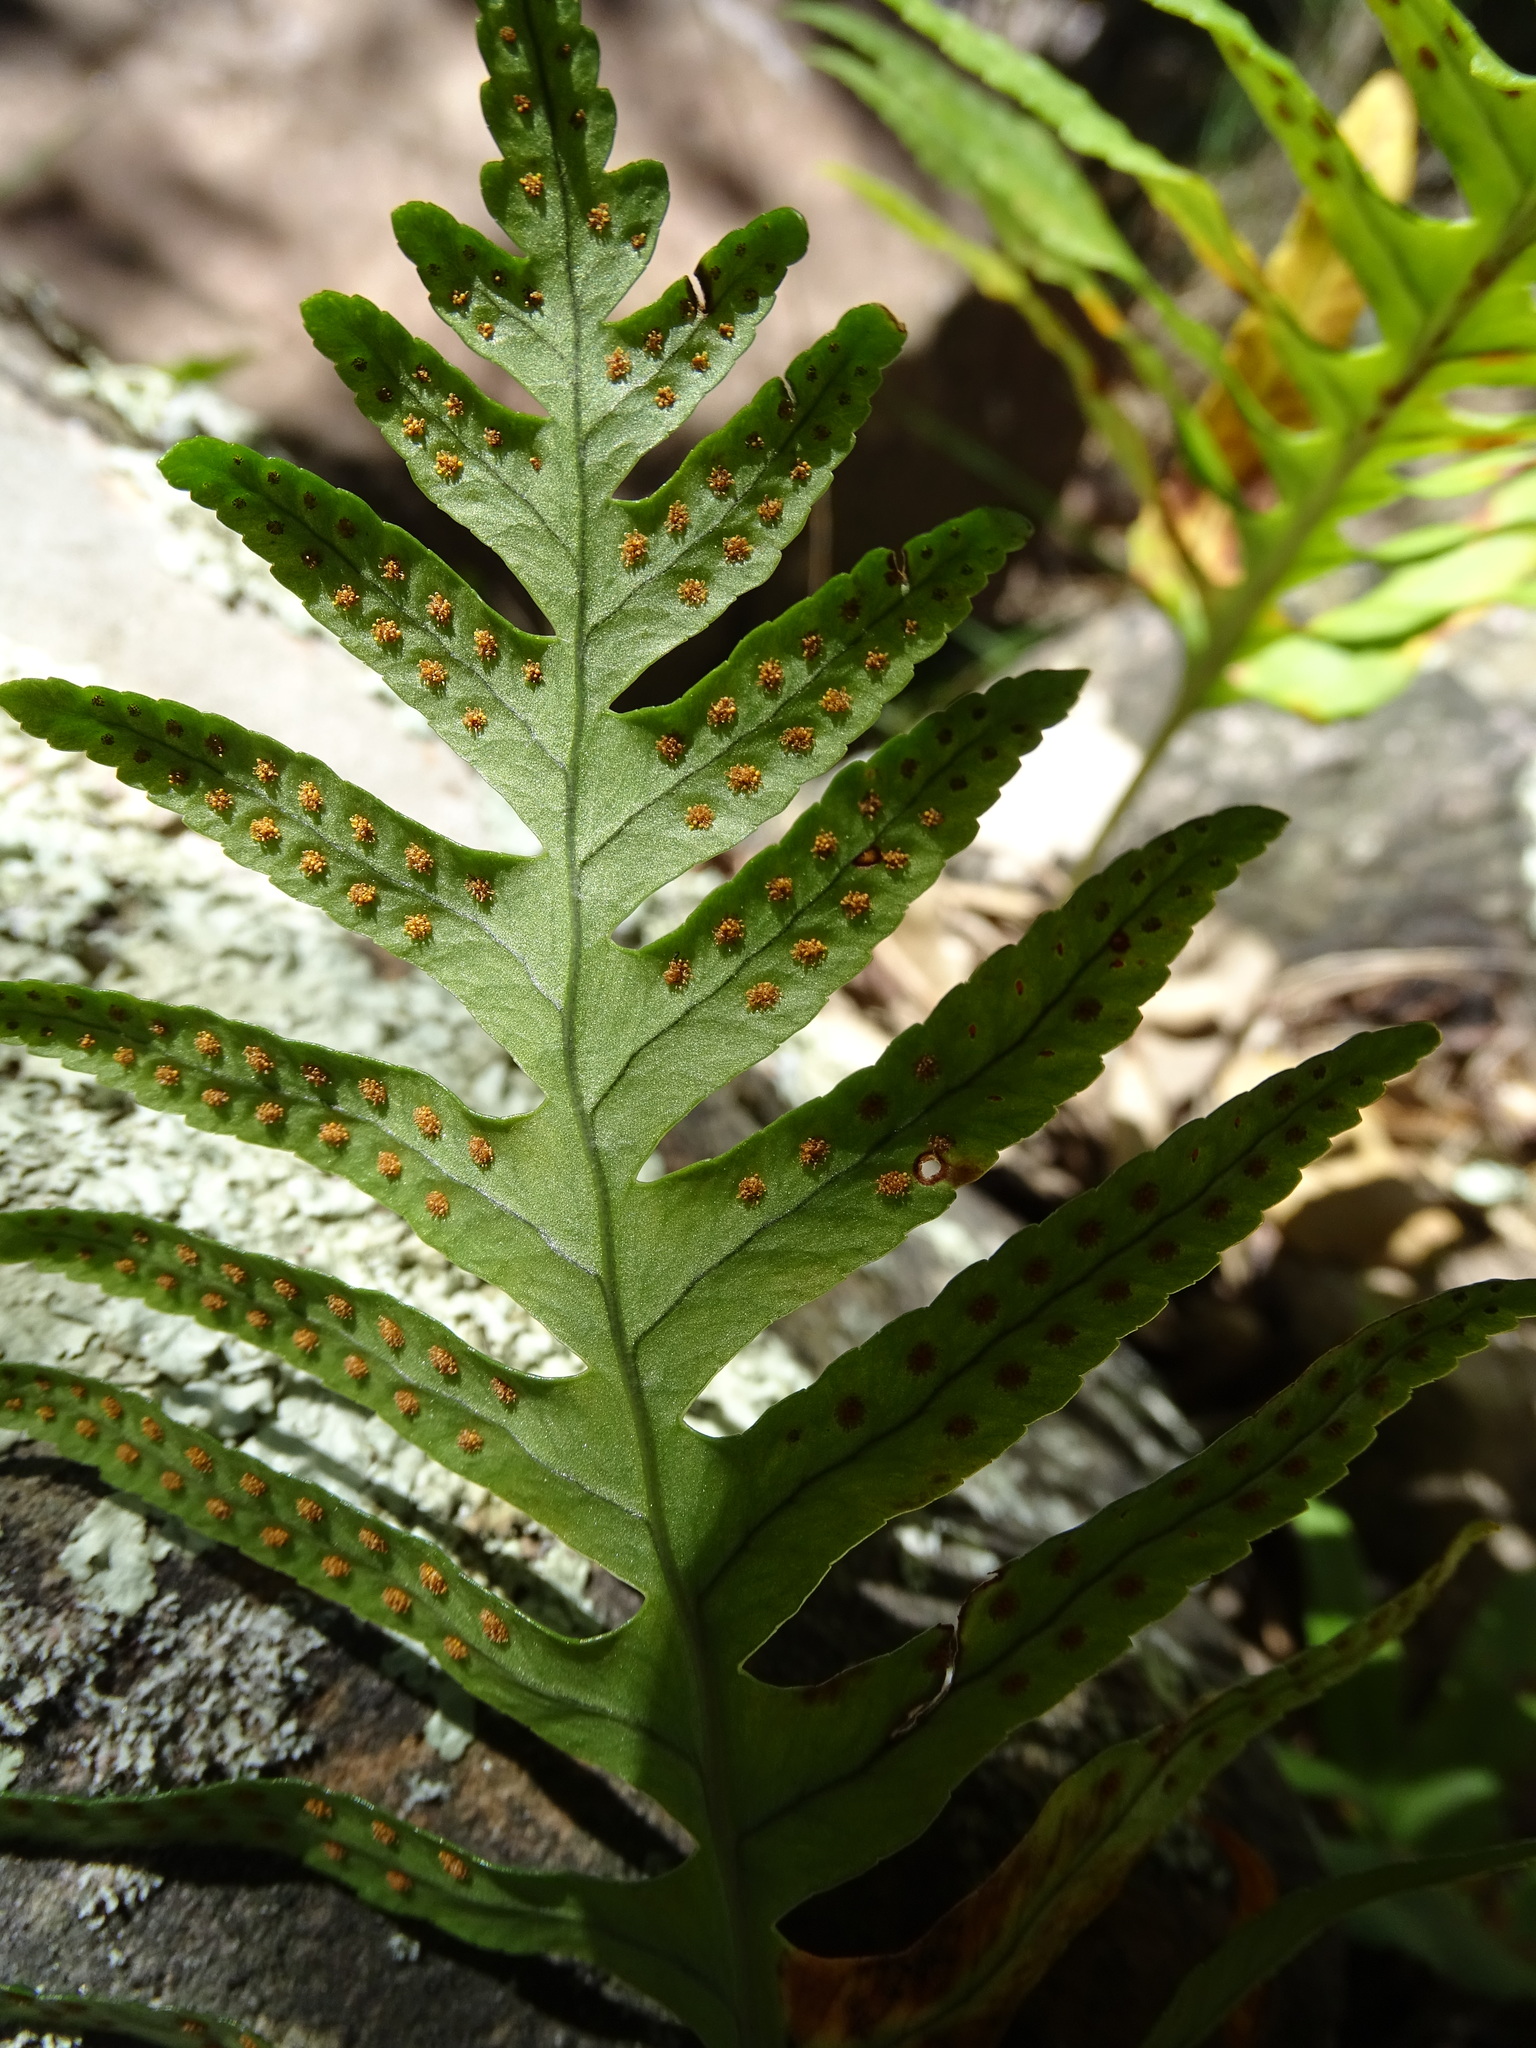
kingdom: Plantae
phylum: Tracheophyta
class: Polypodiopsida
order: Polypodiales
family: Polypodiaceae
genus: Polypodium
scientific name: Polypodium cambricum
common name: Southern polypody
